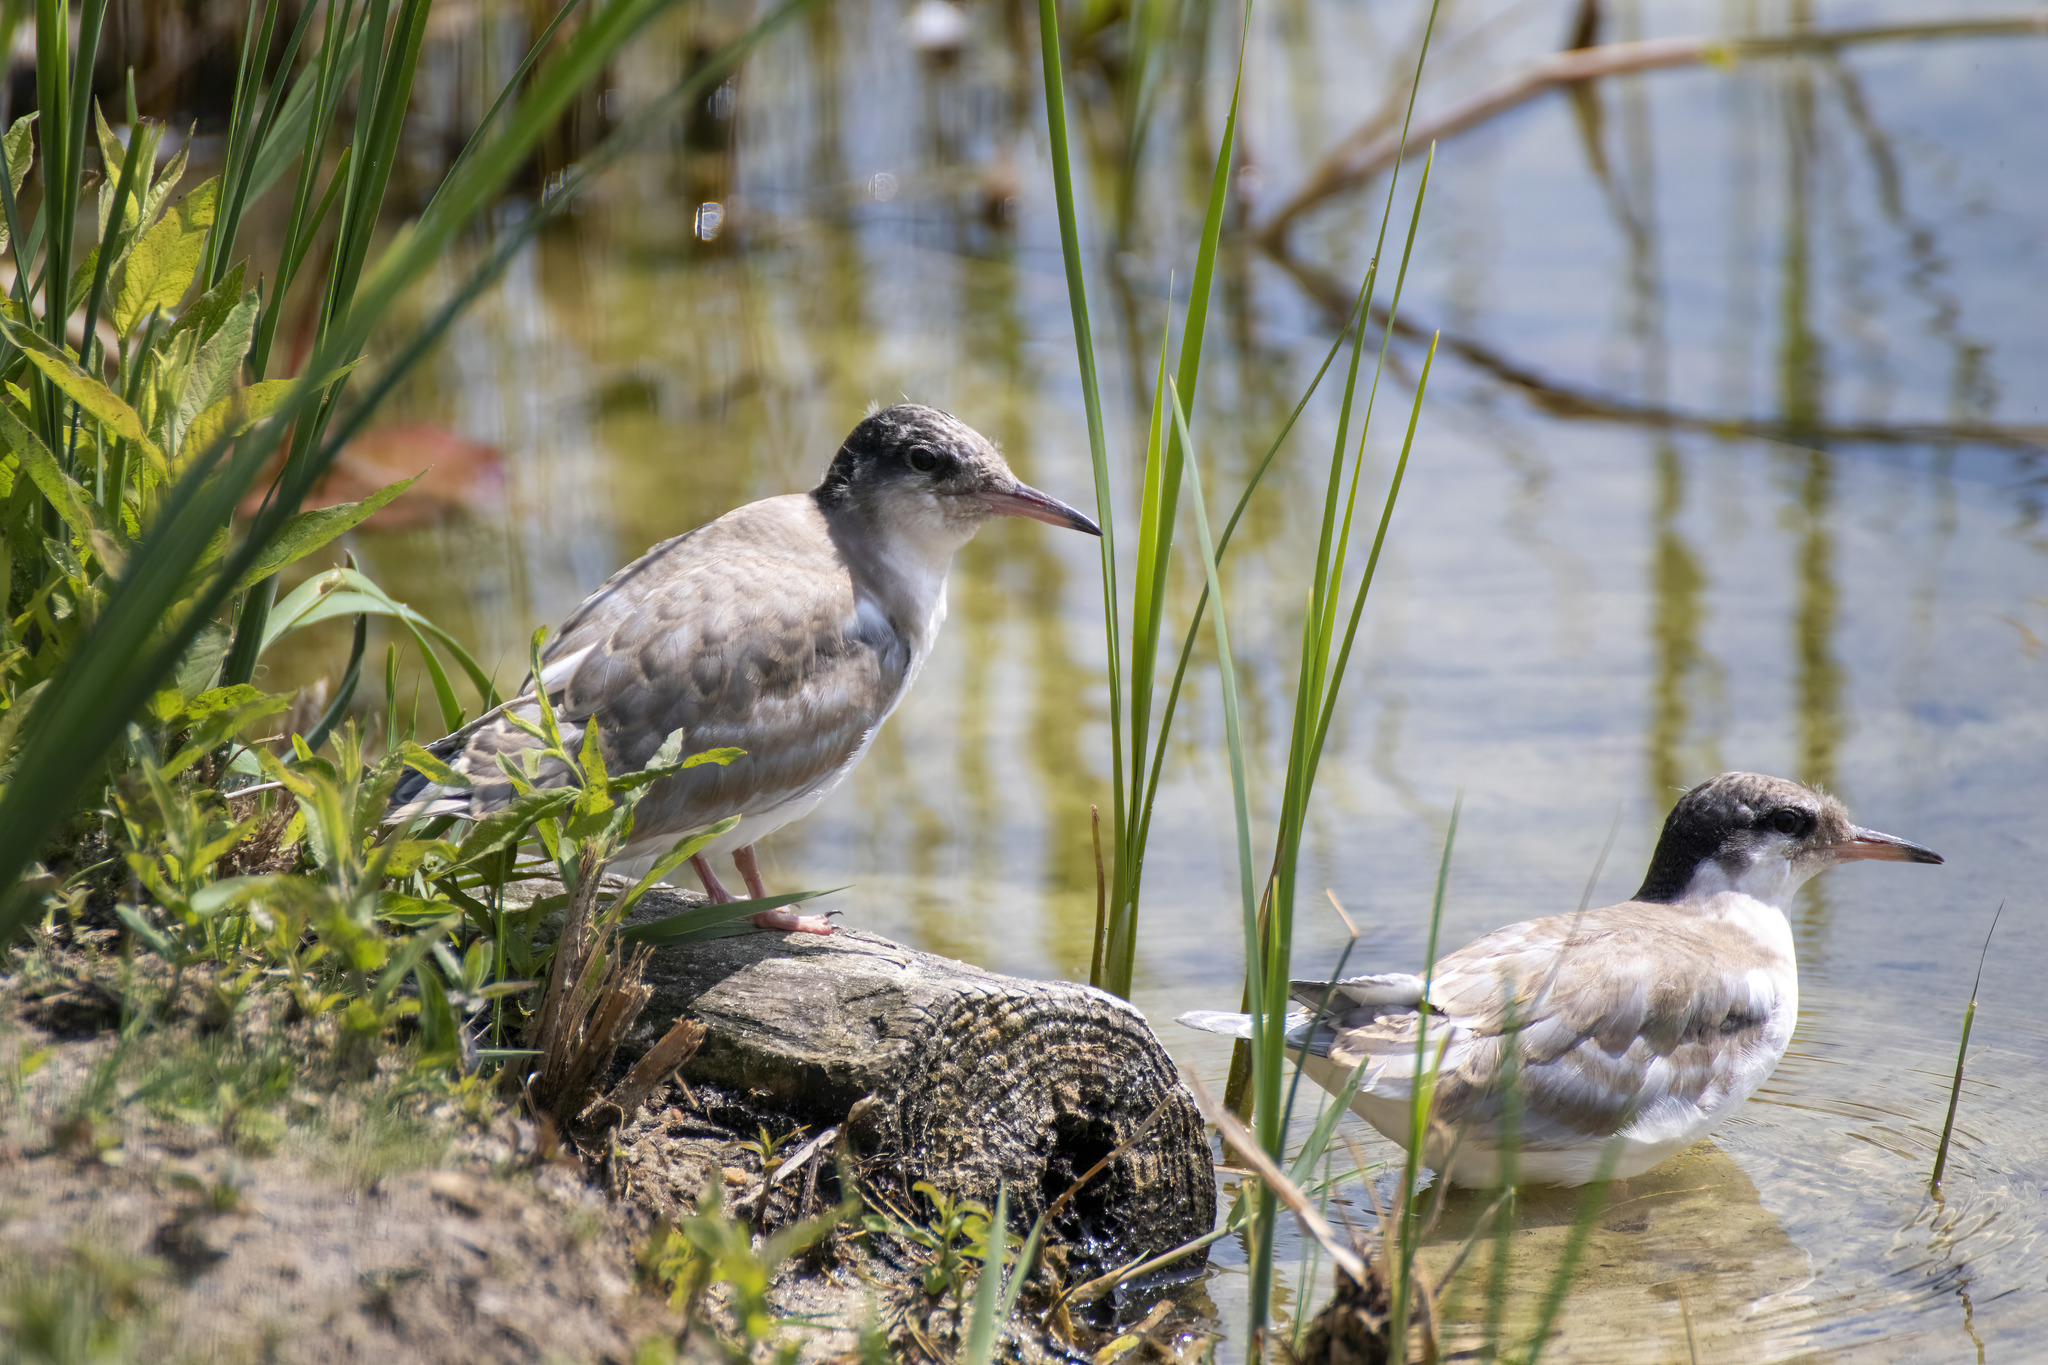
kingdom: Animalia
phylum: Chordata
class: Aves
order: Charadriiformes
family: Laridae
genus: Sterna
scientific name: Sterna hirundo
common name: Common tern
